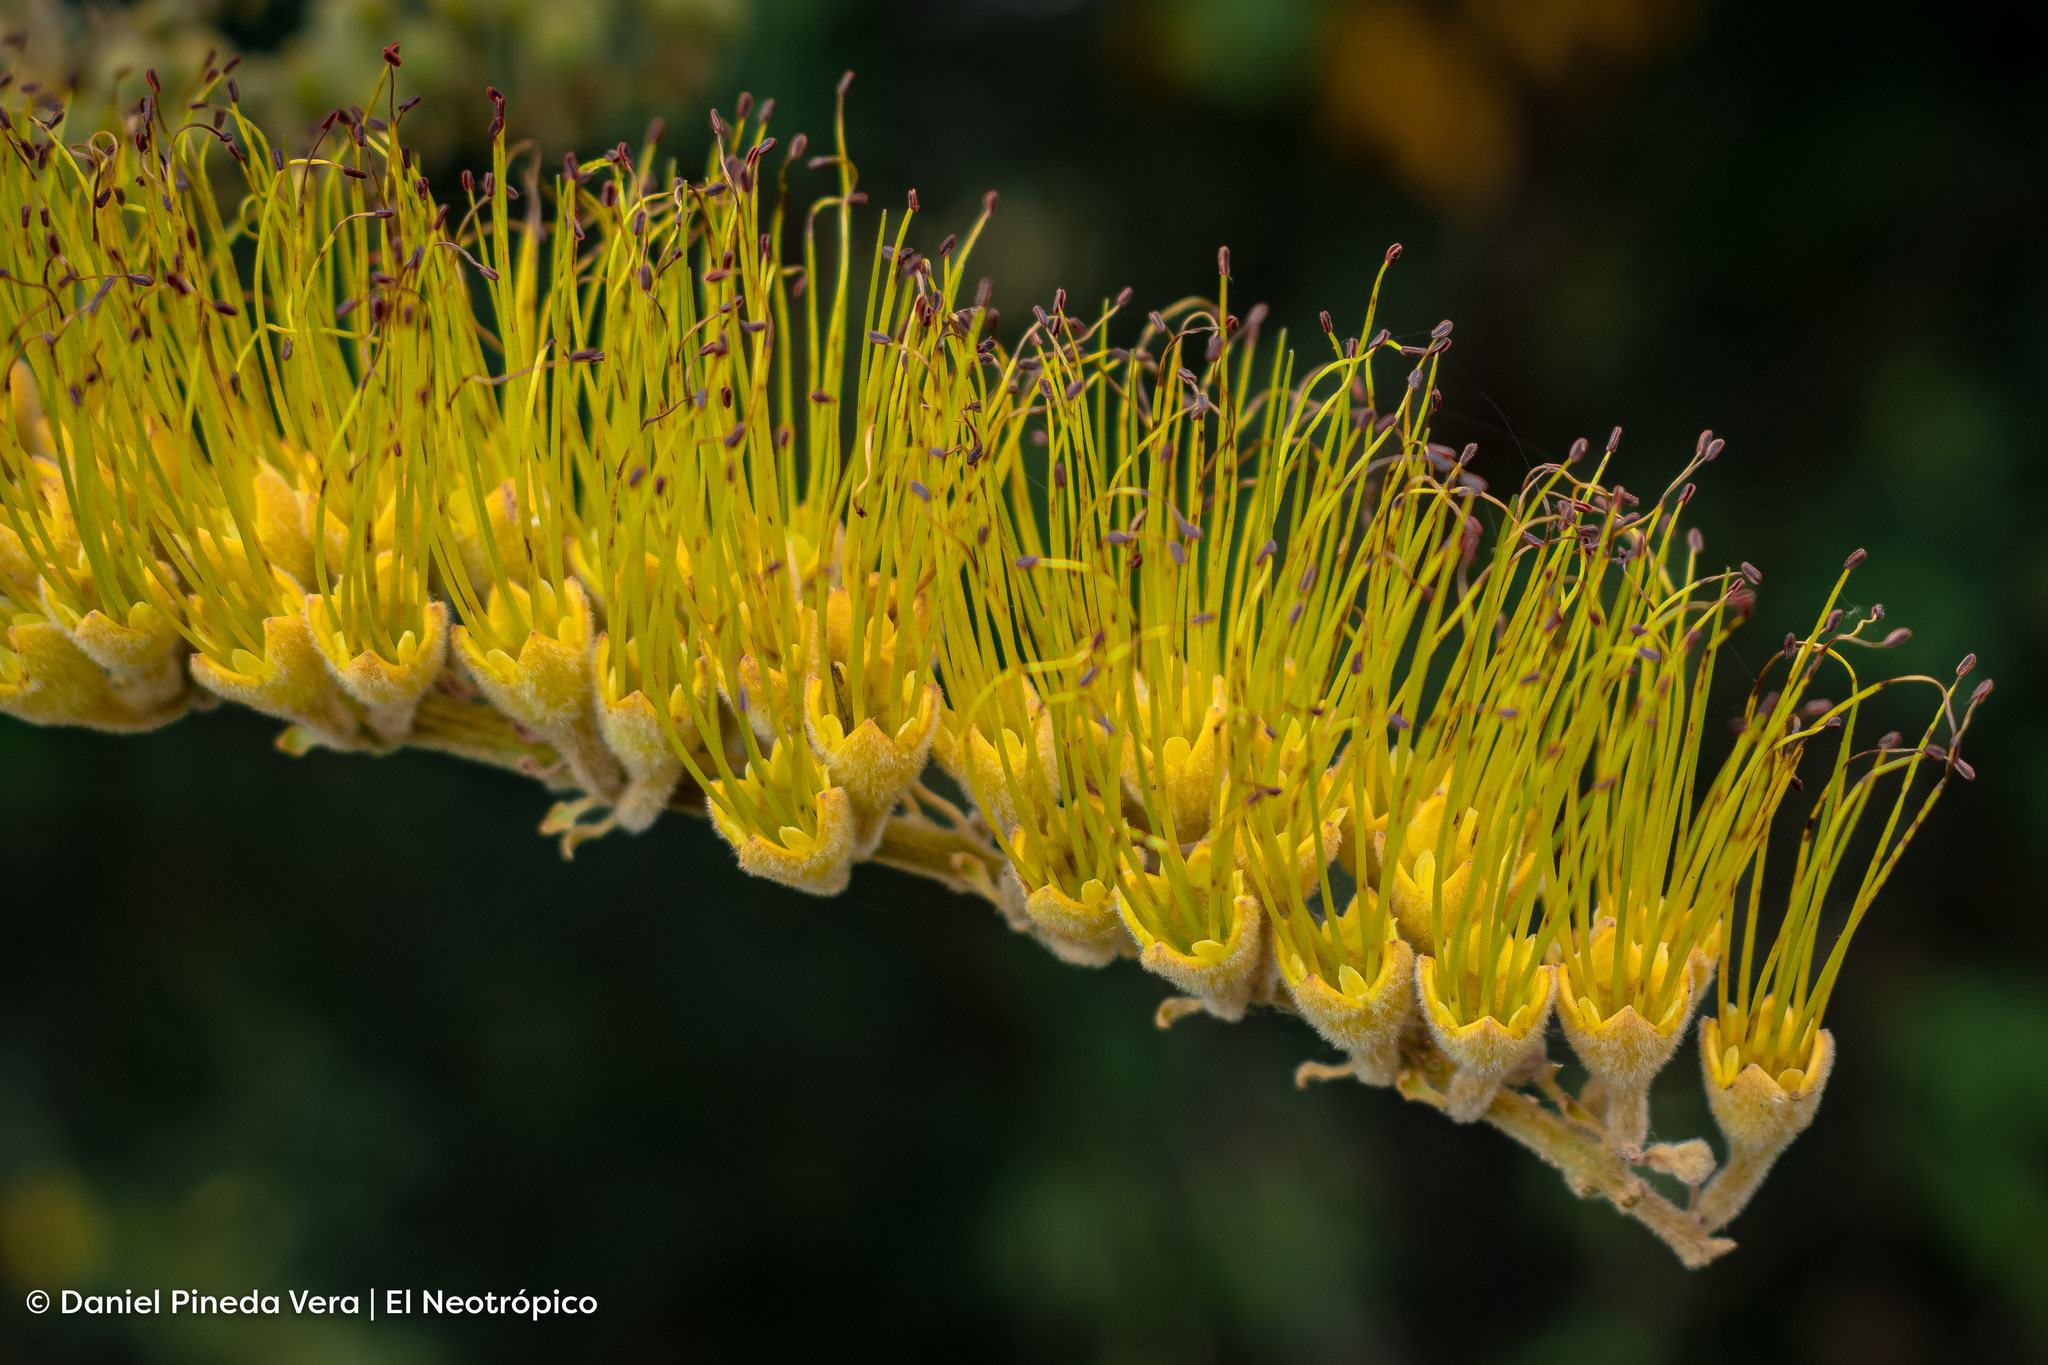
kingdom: Plantae
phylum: Tracheophyta
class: Magnoliopsida
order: Myrtales
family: Combretaceae
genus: Combretum
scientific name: Combretum fruticosum
